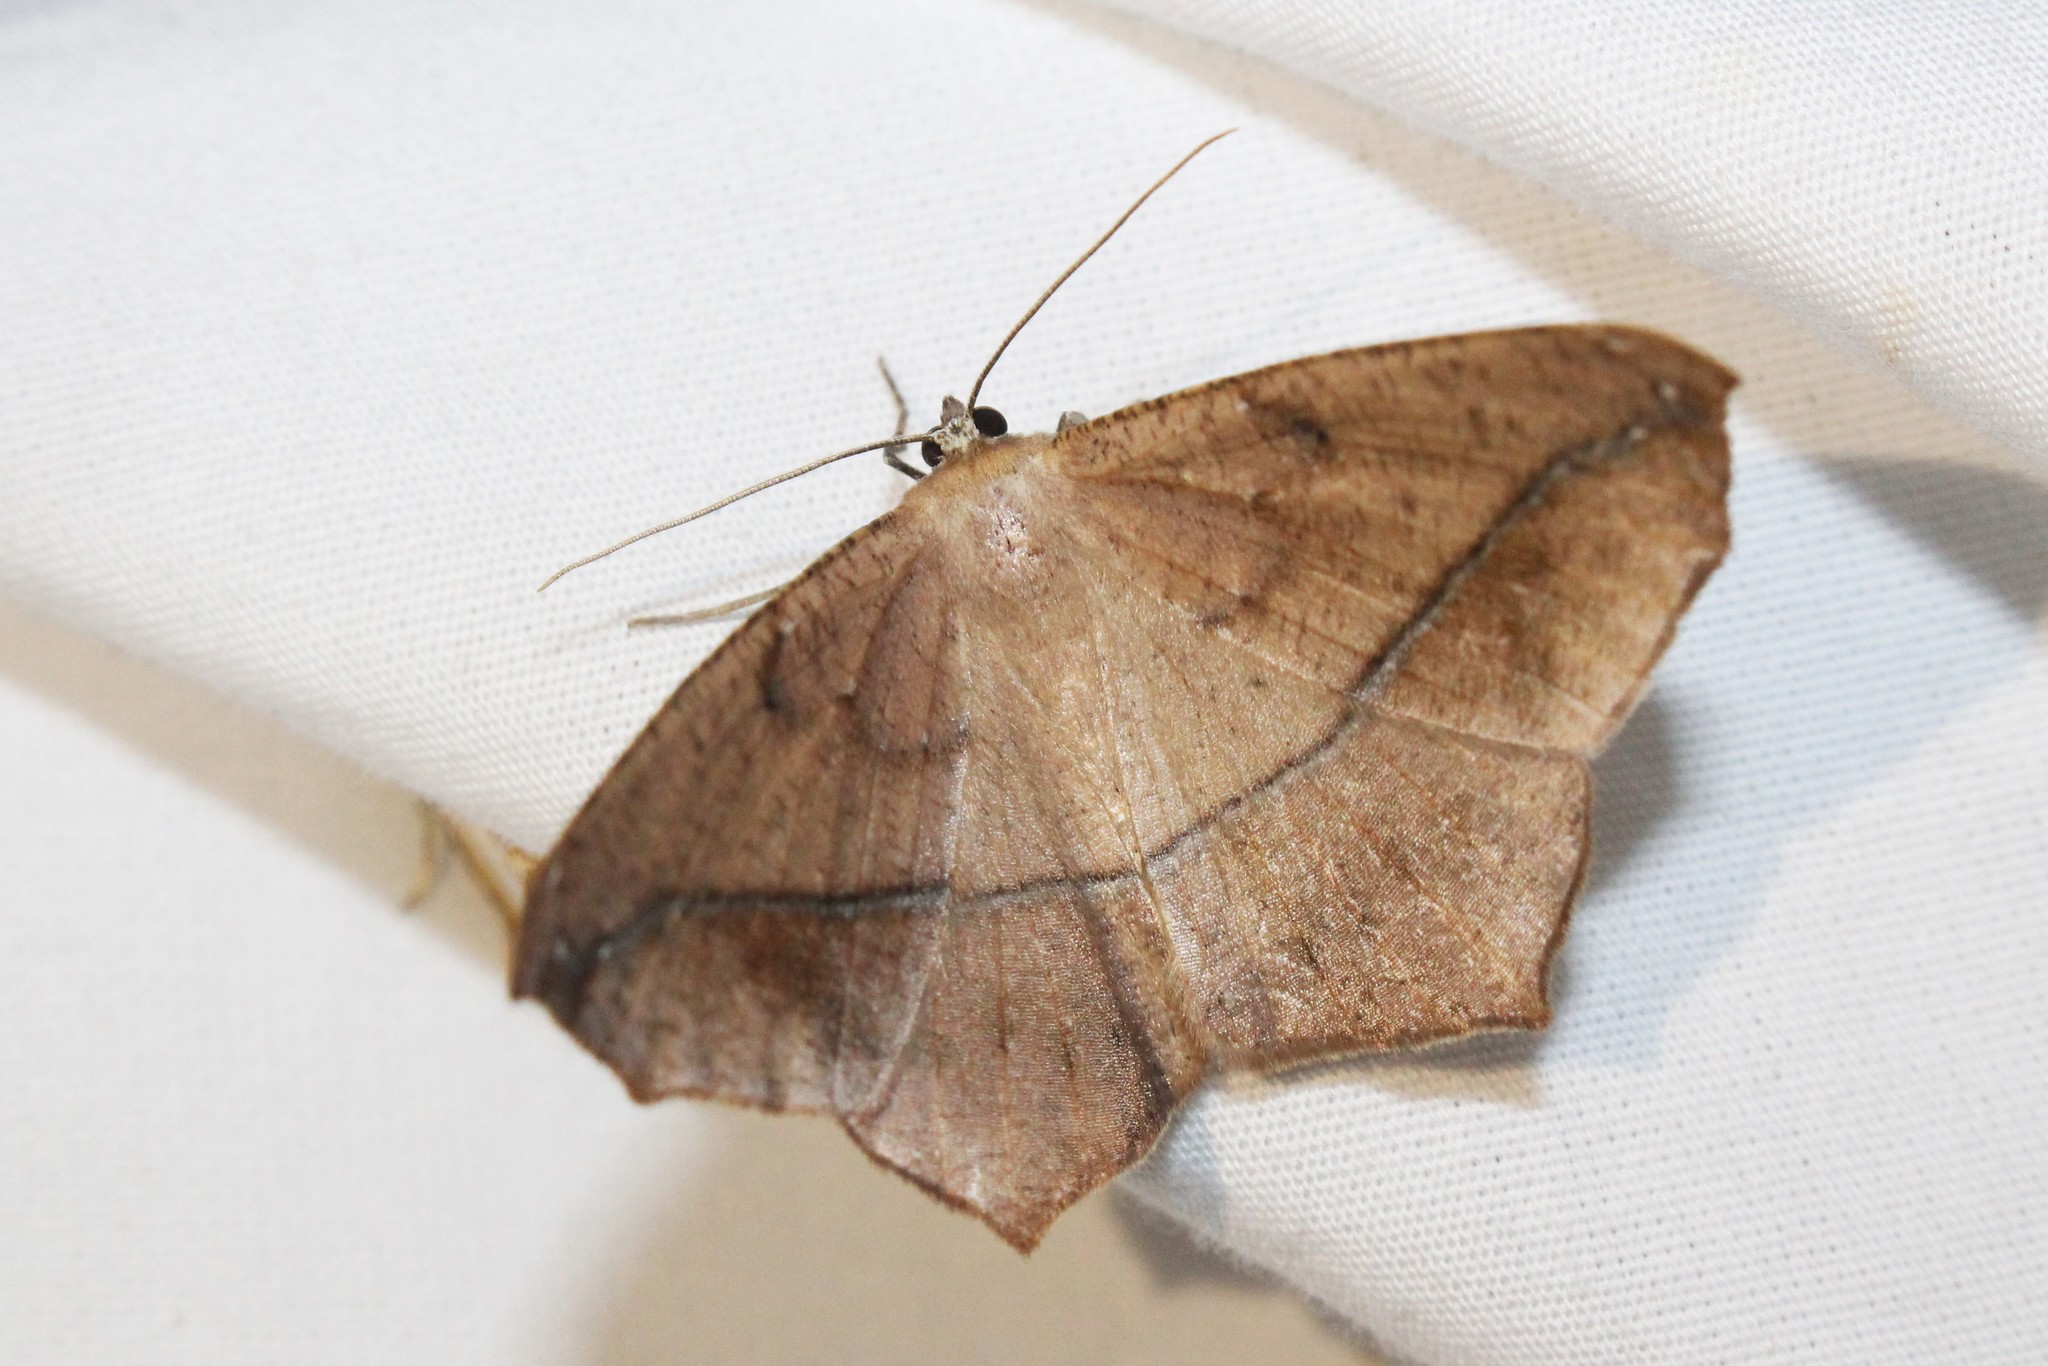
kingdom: Animalia
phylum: Arthropoda
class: Insecta
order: Lepidoptera
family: Geometridae
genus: Prochoerodes
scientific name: Prochoerodes lineola
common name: Large maple spanworm
